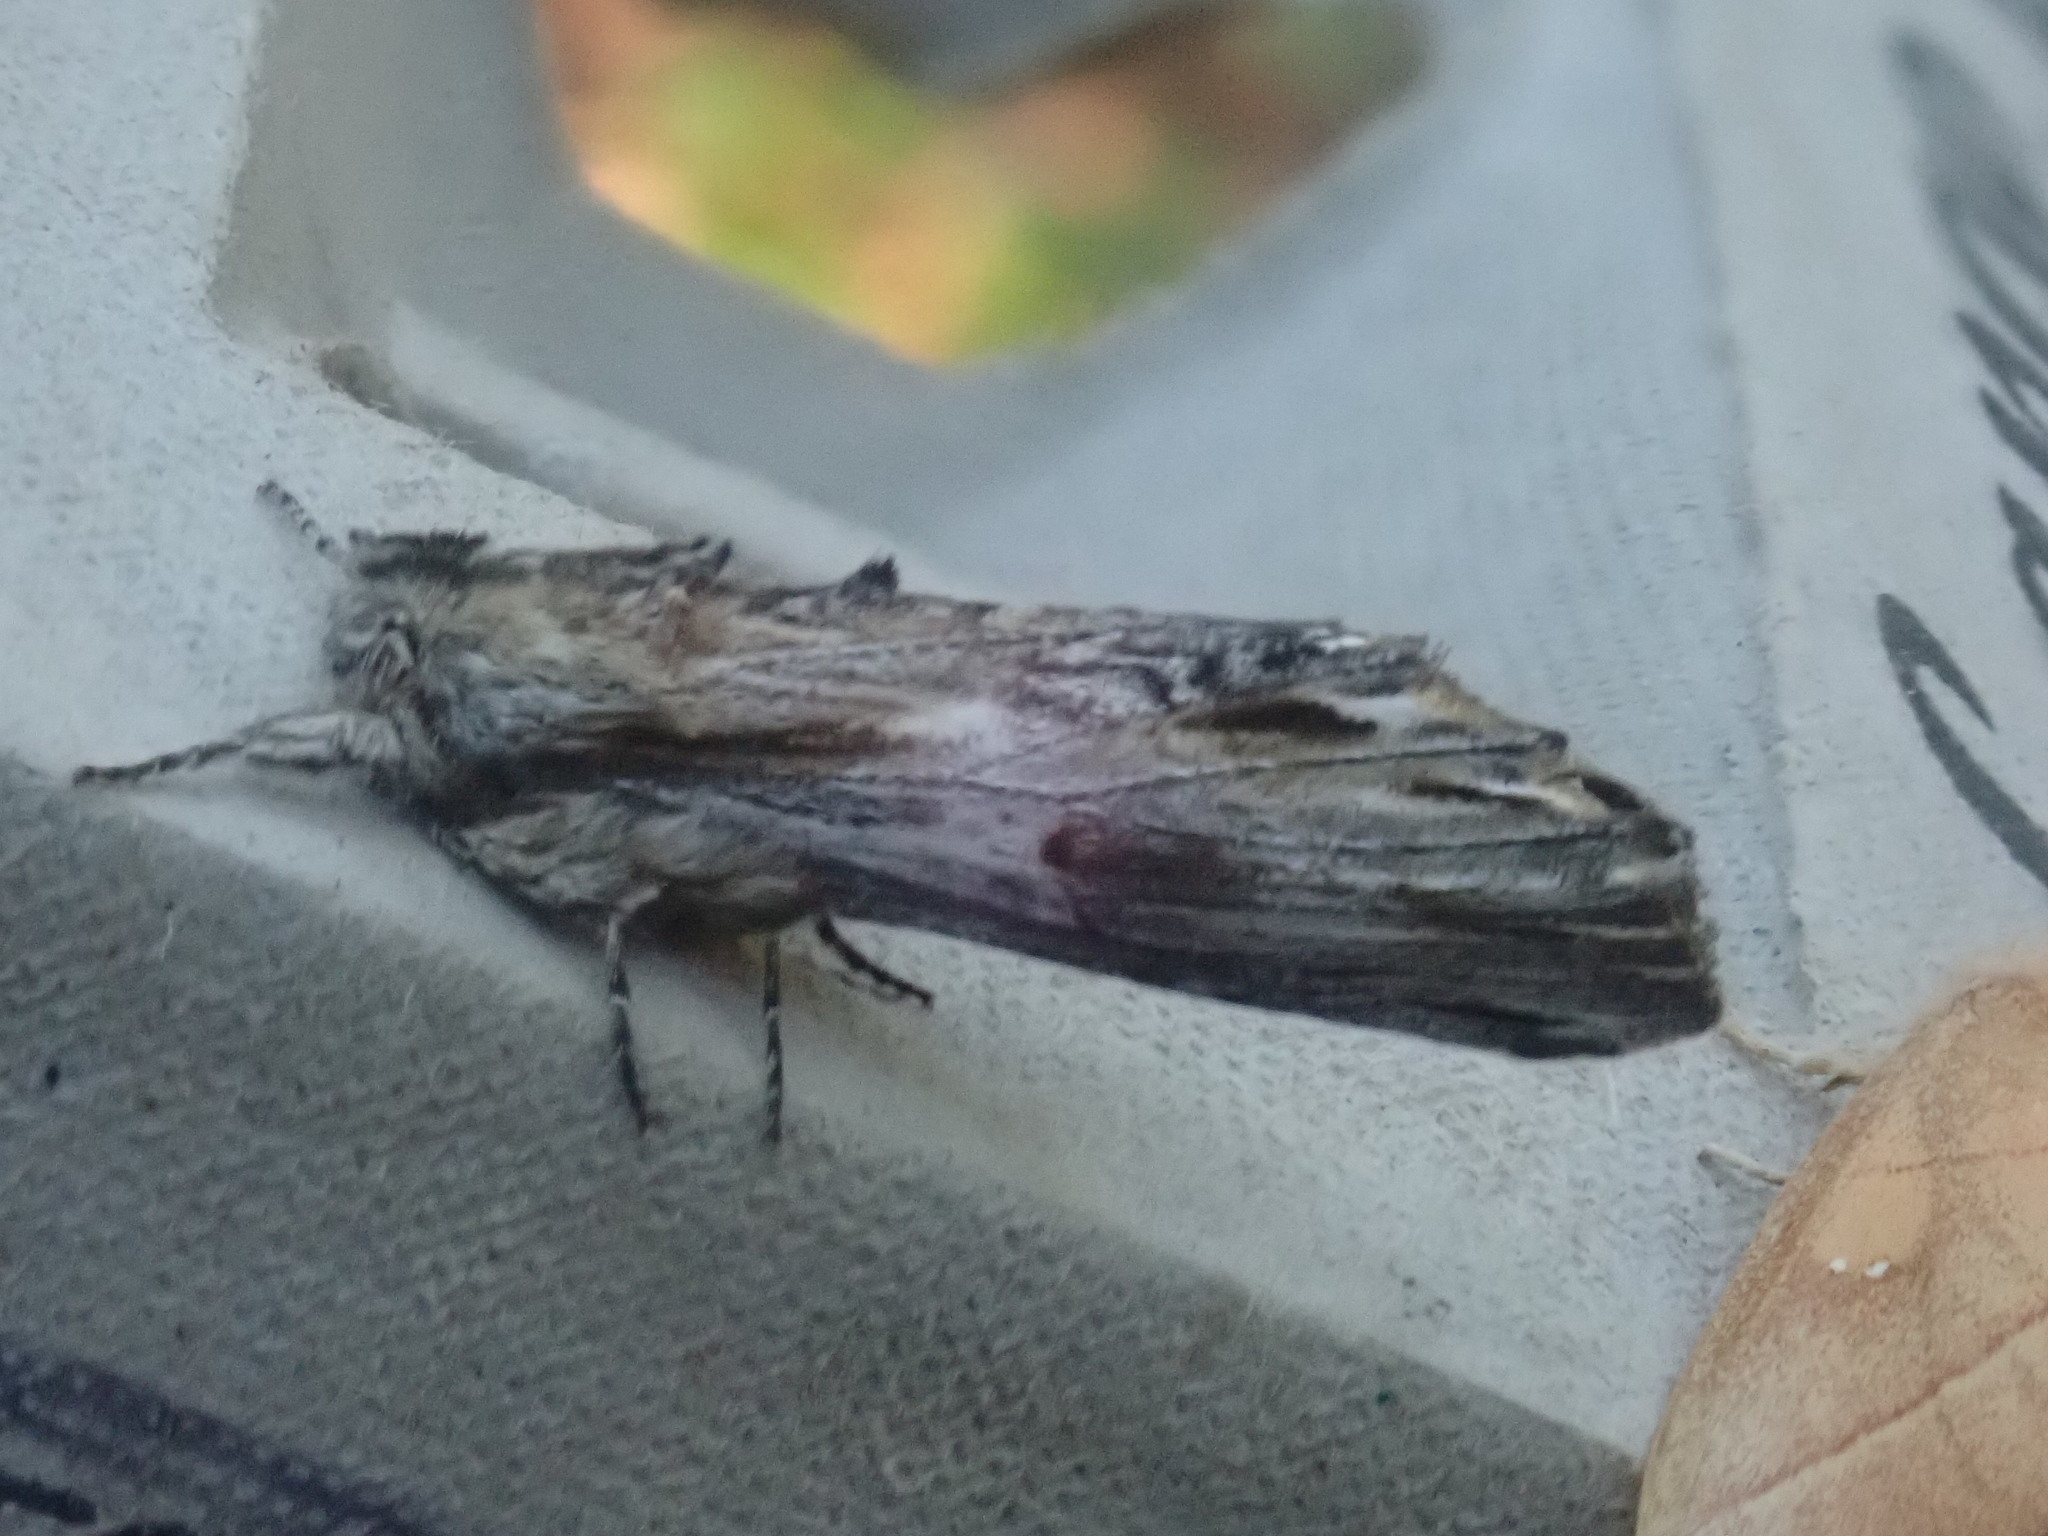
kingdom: Animalia
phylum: Arthropoda
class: Insecta
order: Lepidoptera
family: Notodontidae
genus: Oligocentria
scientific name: Oligocentria Ianassa lignicolor
